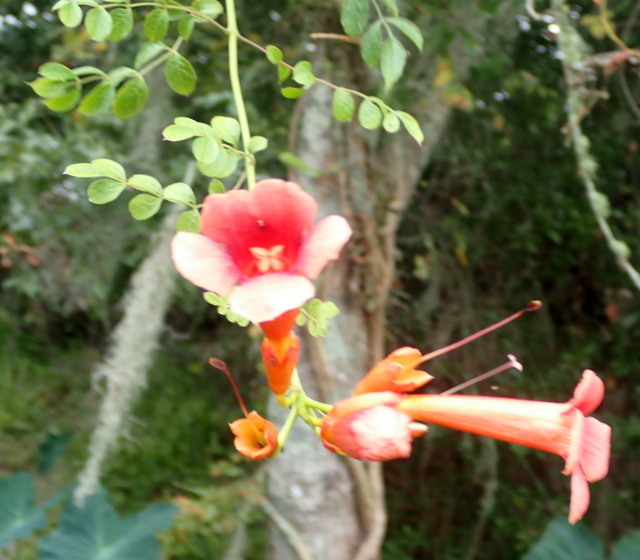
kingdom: Plantae
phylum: Tracheophyta
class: Magnoliopsida
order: Lamiales
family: Bignoniaceae
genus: Campsis
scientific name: Campsis radicans
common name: Trumpet-creeper
